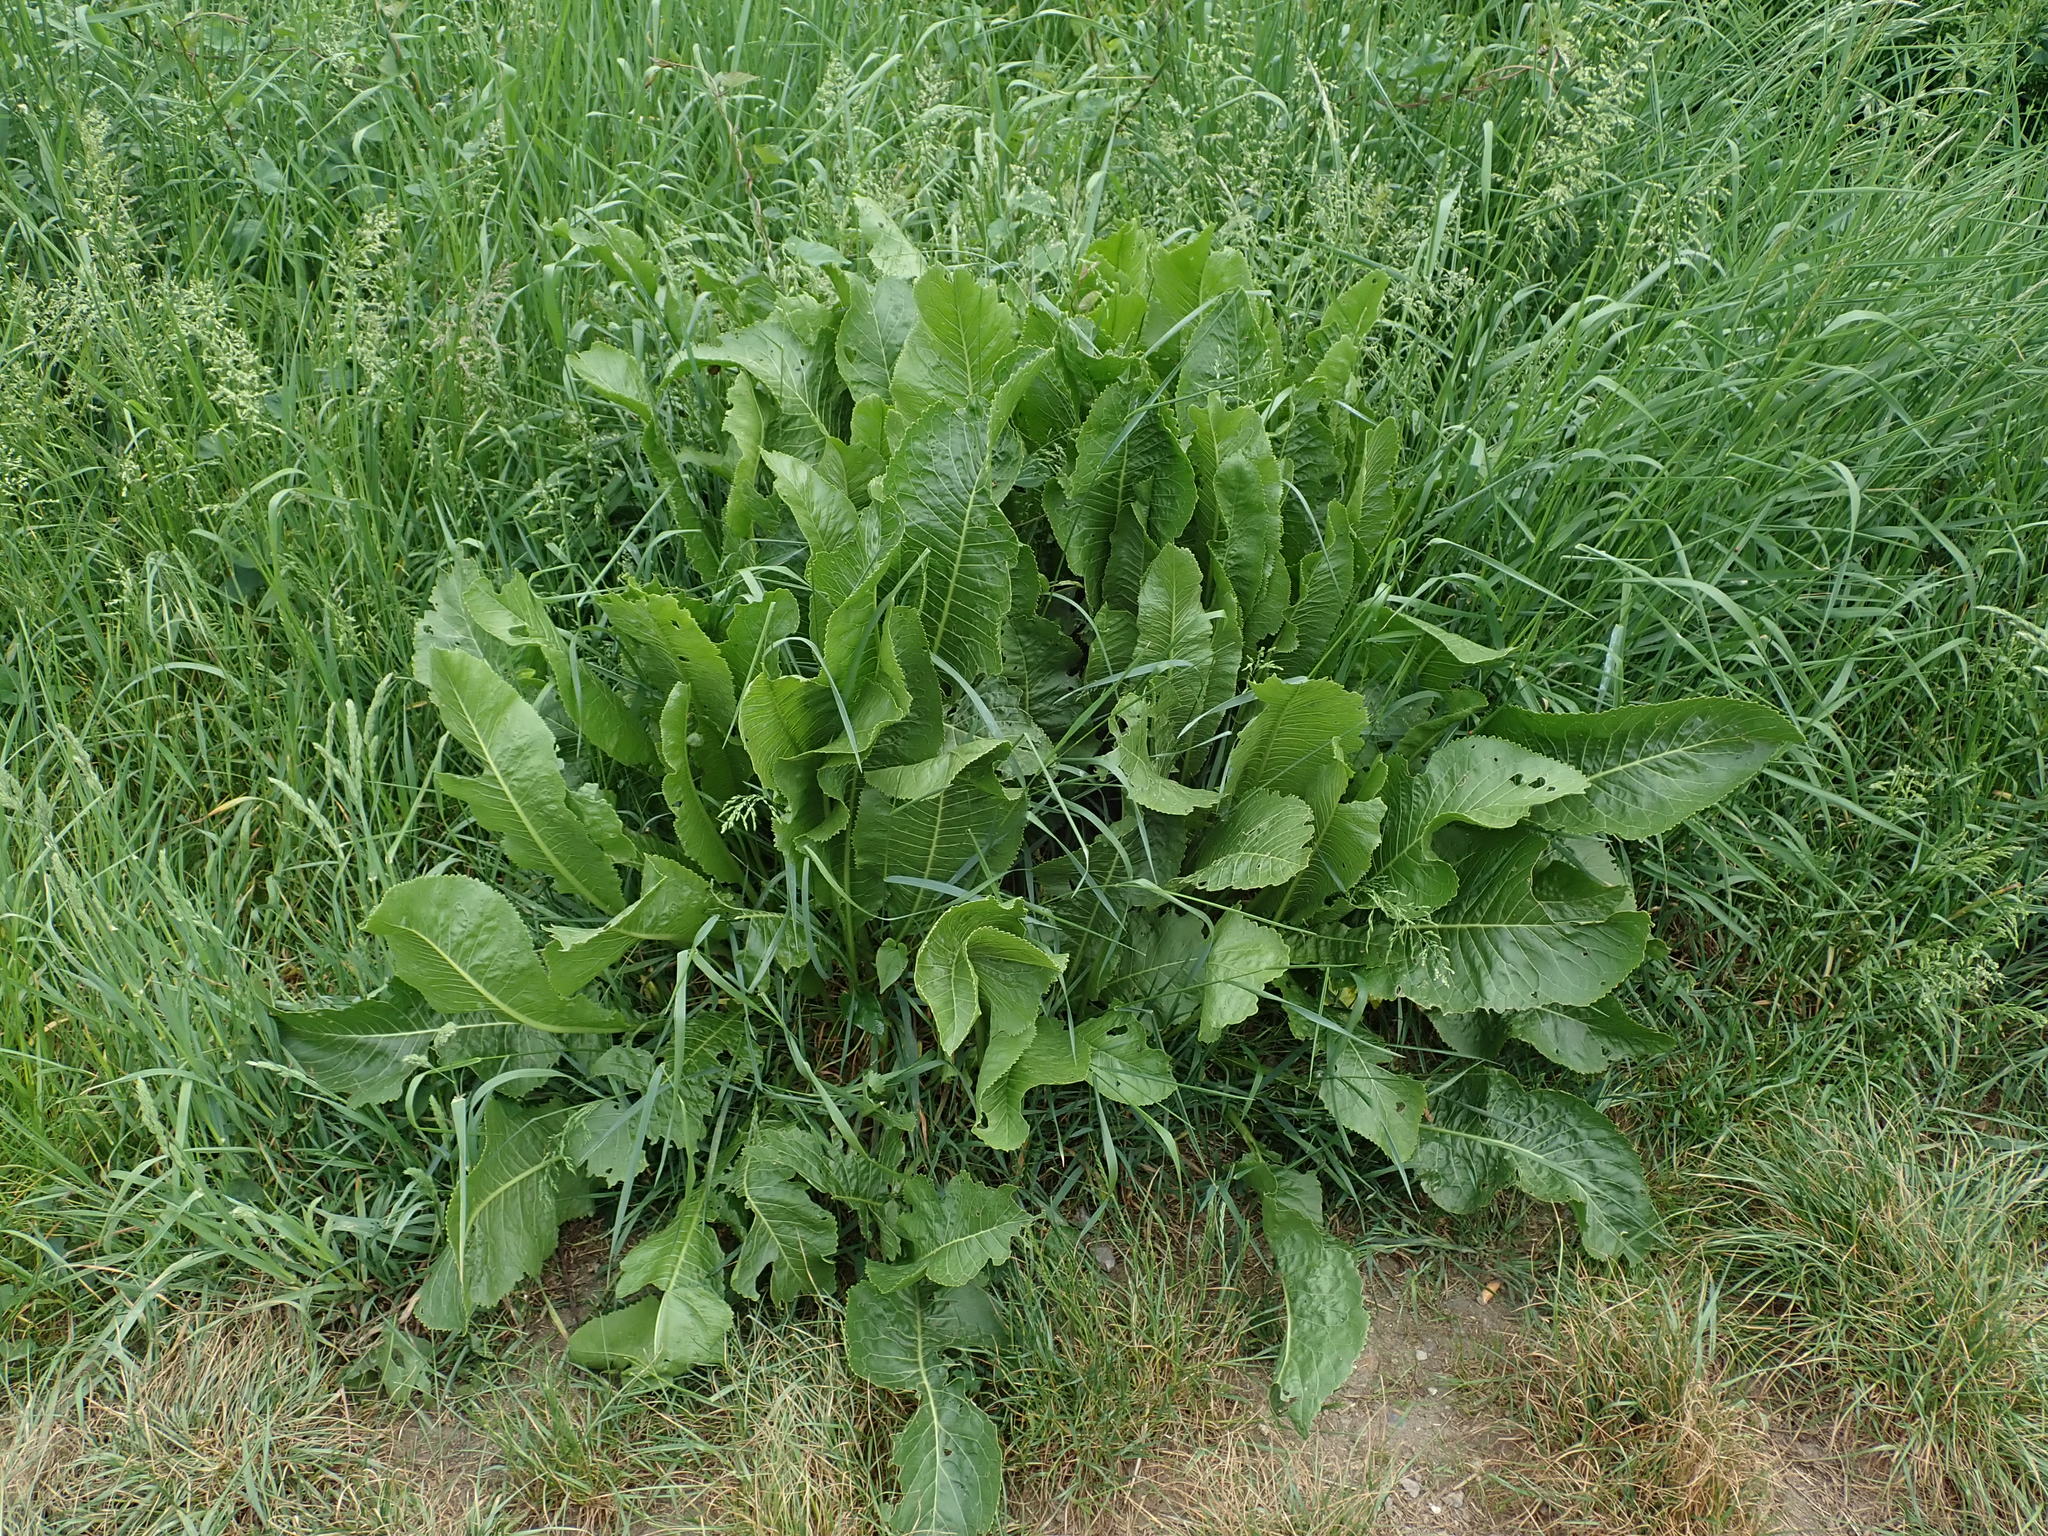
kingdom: Plantae
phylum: Tracheophyta
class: Magnoliopsida
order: Brassicales
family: Brassicaceae
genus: Armoracia
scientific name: Armoracia rusticana
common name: Horseradish
